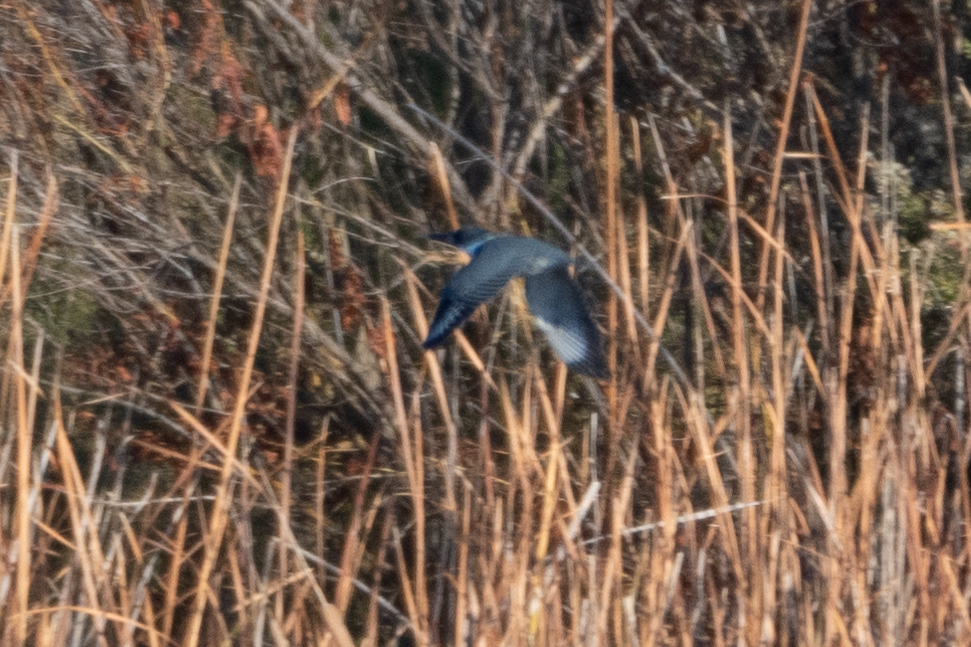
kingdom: Animalia
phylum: Chordata
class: Aves
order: Coraciiformes
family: Alcedinidae
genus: Megaceryle
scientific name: Megaceryle alcyon
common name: Belted kingfisher
